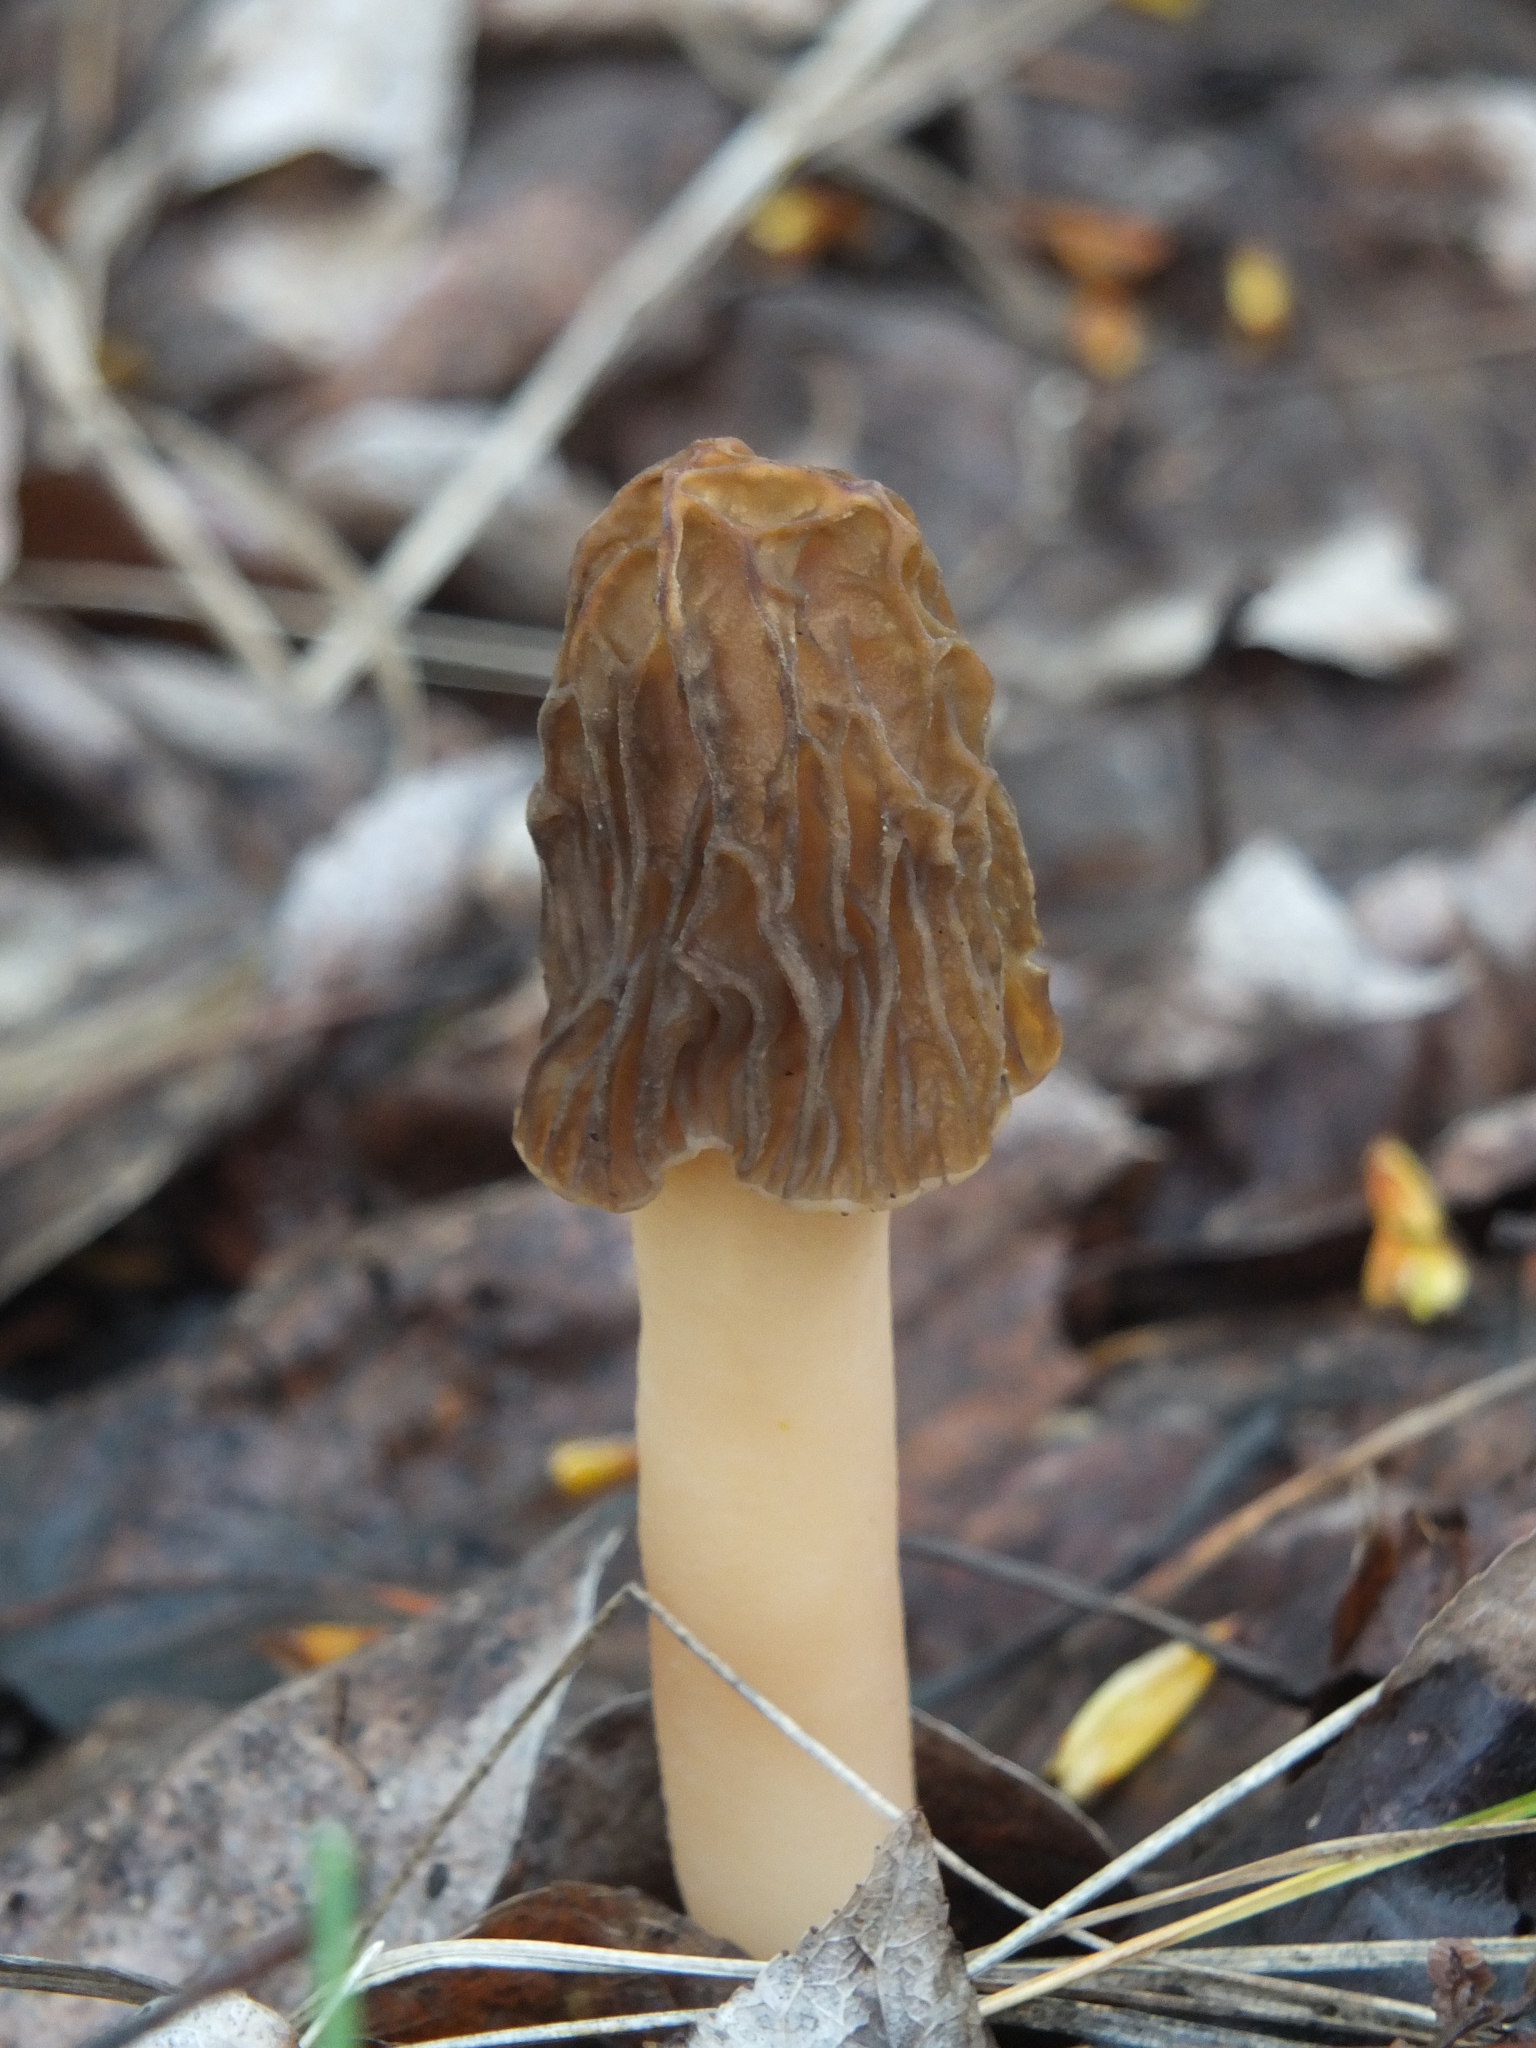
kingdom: Fungi
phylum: Ascomycota
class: Pezizomycetes
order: Pezizales
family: Morchellaceae
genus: Verpa
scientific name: Verpa bohemica
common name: Wrinkled thimble morel
